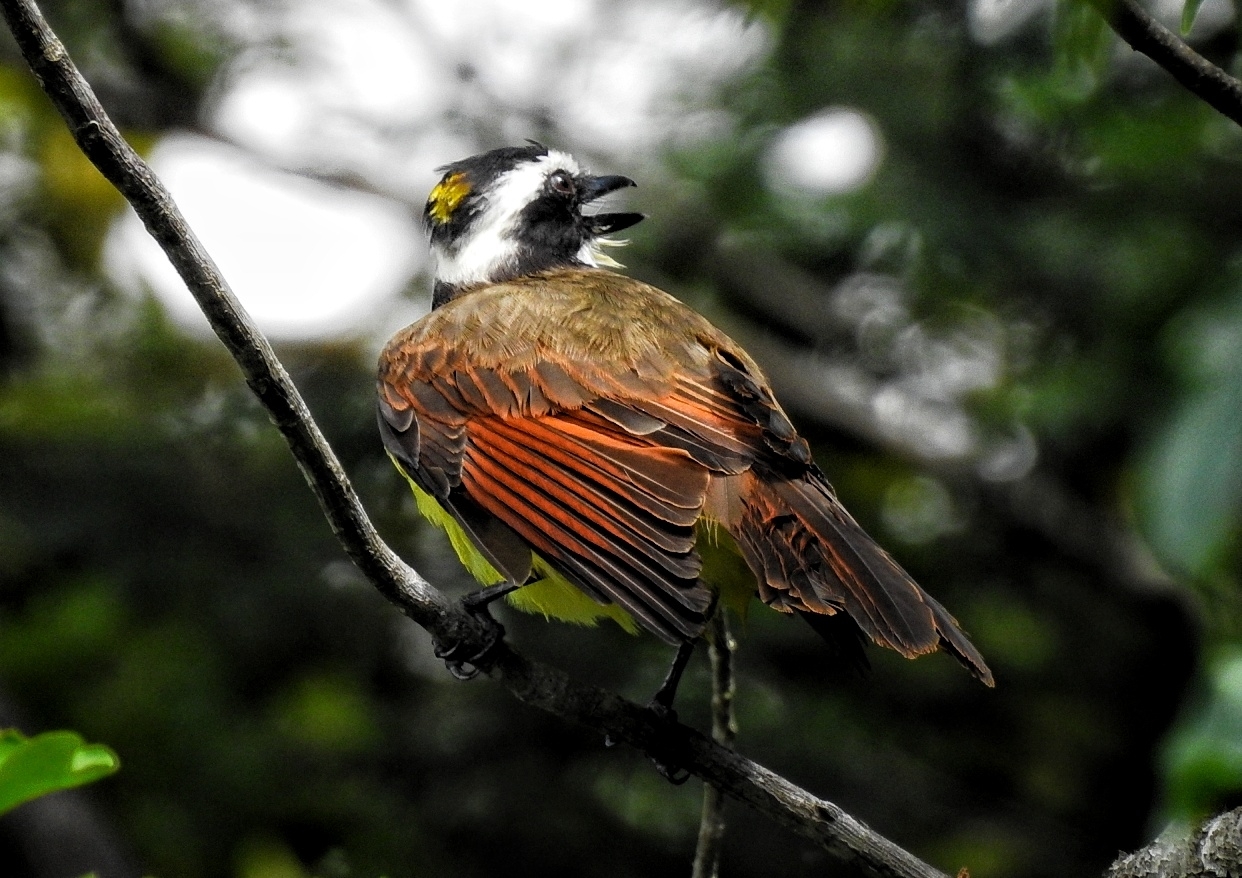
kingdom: Animalia
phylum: Chordata
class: Aves
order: Passeriformes
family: Tyrannidae
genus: Pitangus
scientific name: Pitangus sulphuratus
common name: Great kiskadee
